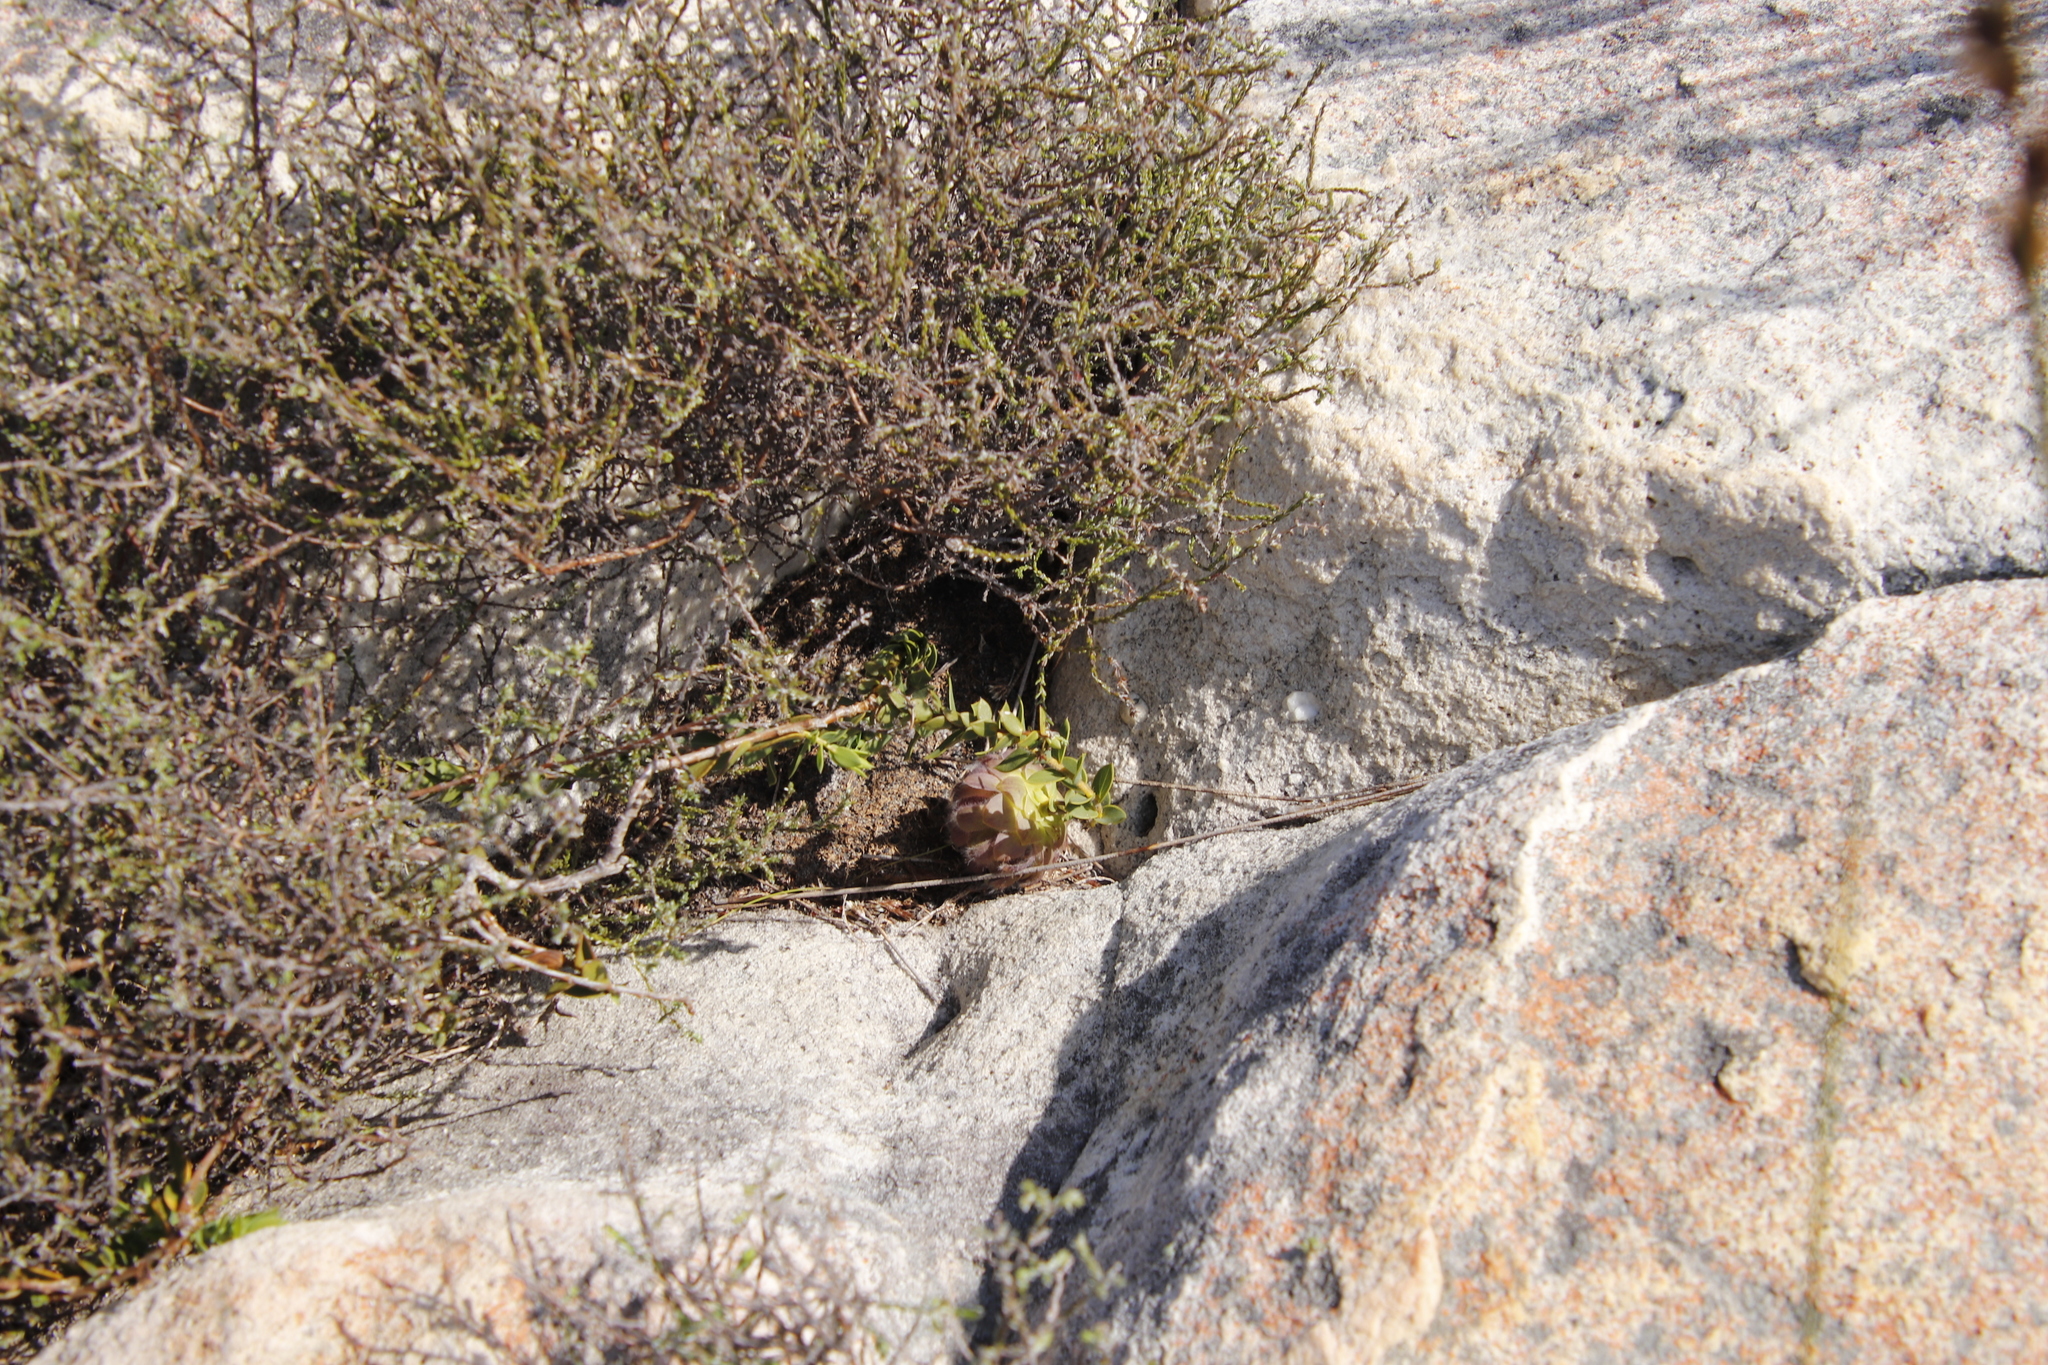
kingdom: Plantae
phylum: Tracheophyta
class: Magnoliopsida
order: Fabales
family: Fabaceae
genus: Liparia
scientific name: Liparia parva
